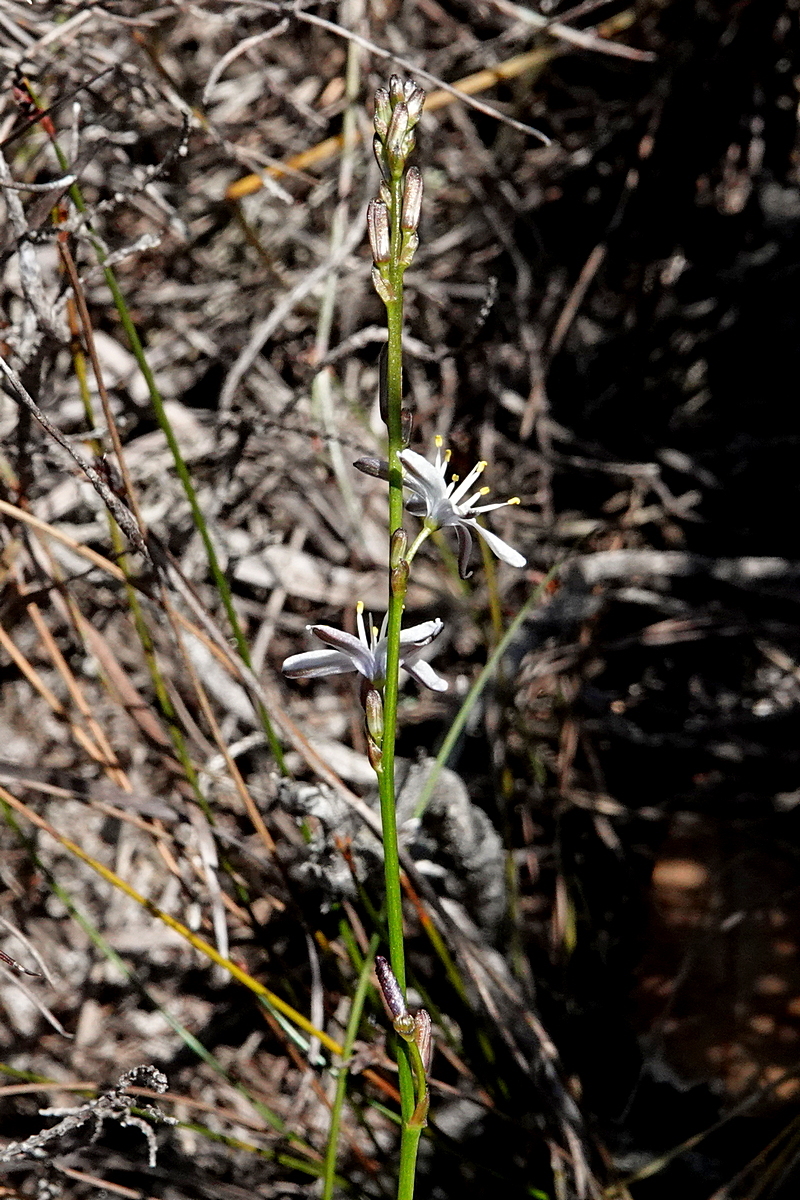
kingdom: Plantae
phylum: Tracheophyta
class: Liliopsida
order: Asparagales
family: Asphodelaceae
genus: Caesia
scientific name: Caesia parviflora
